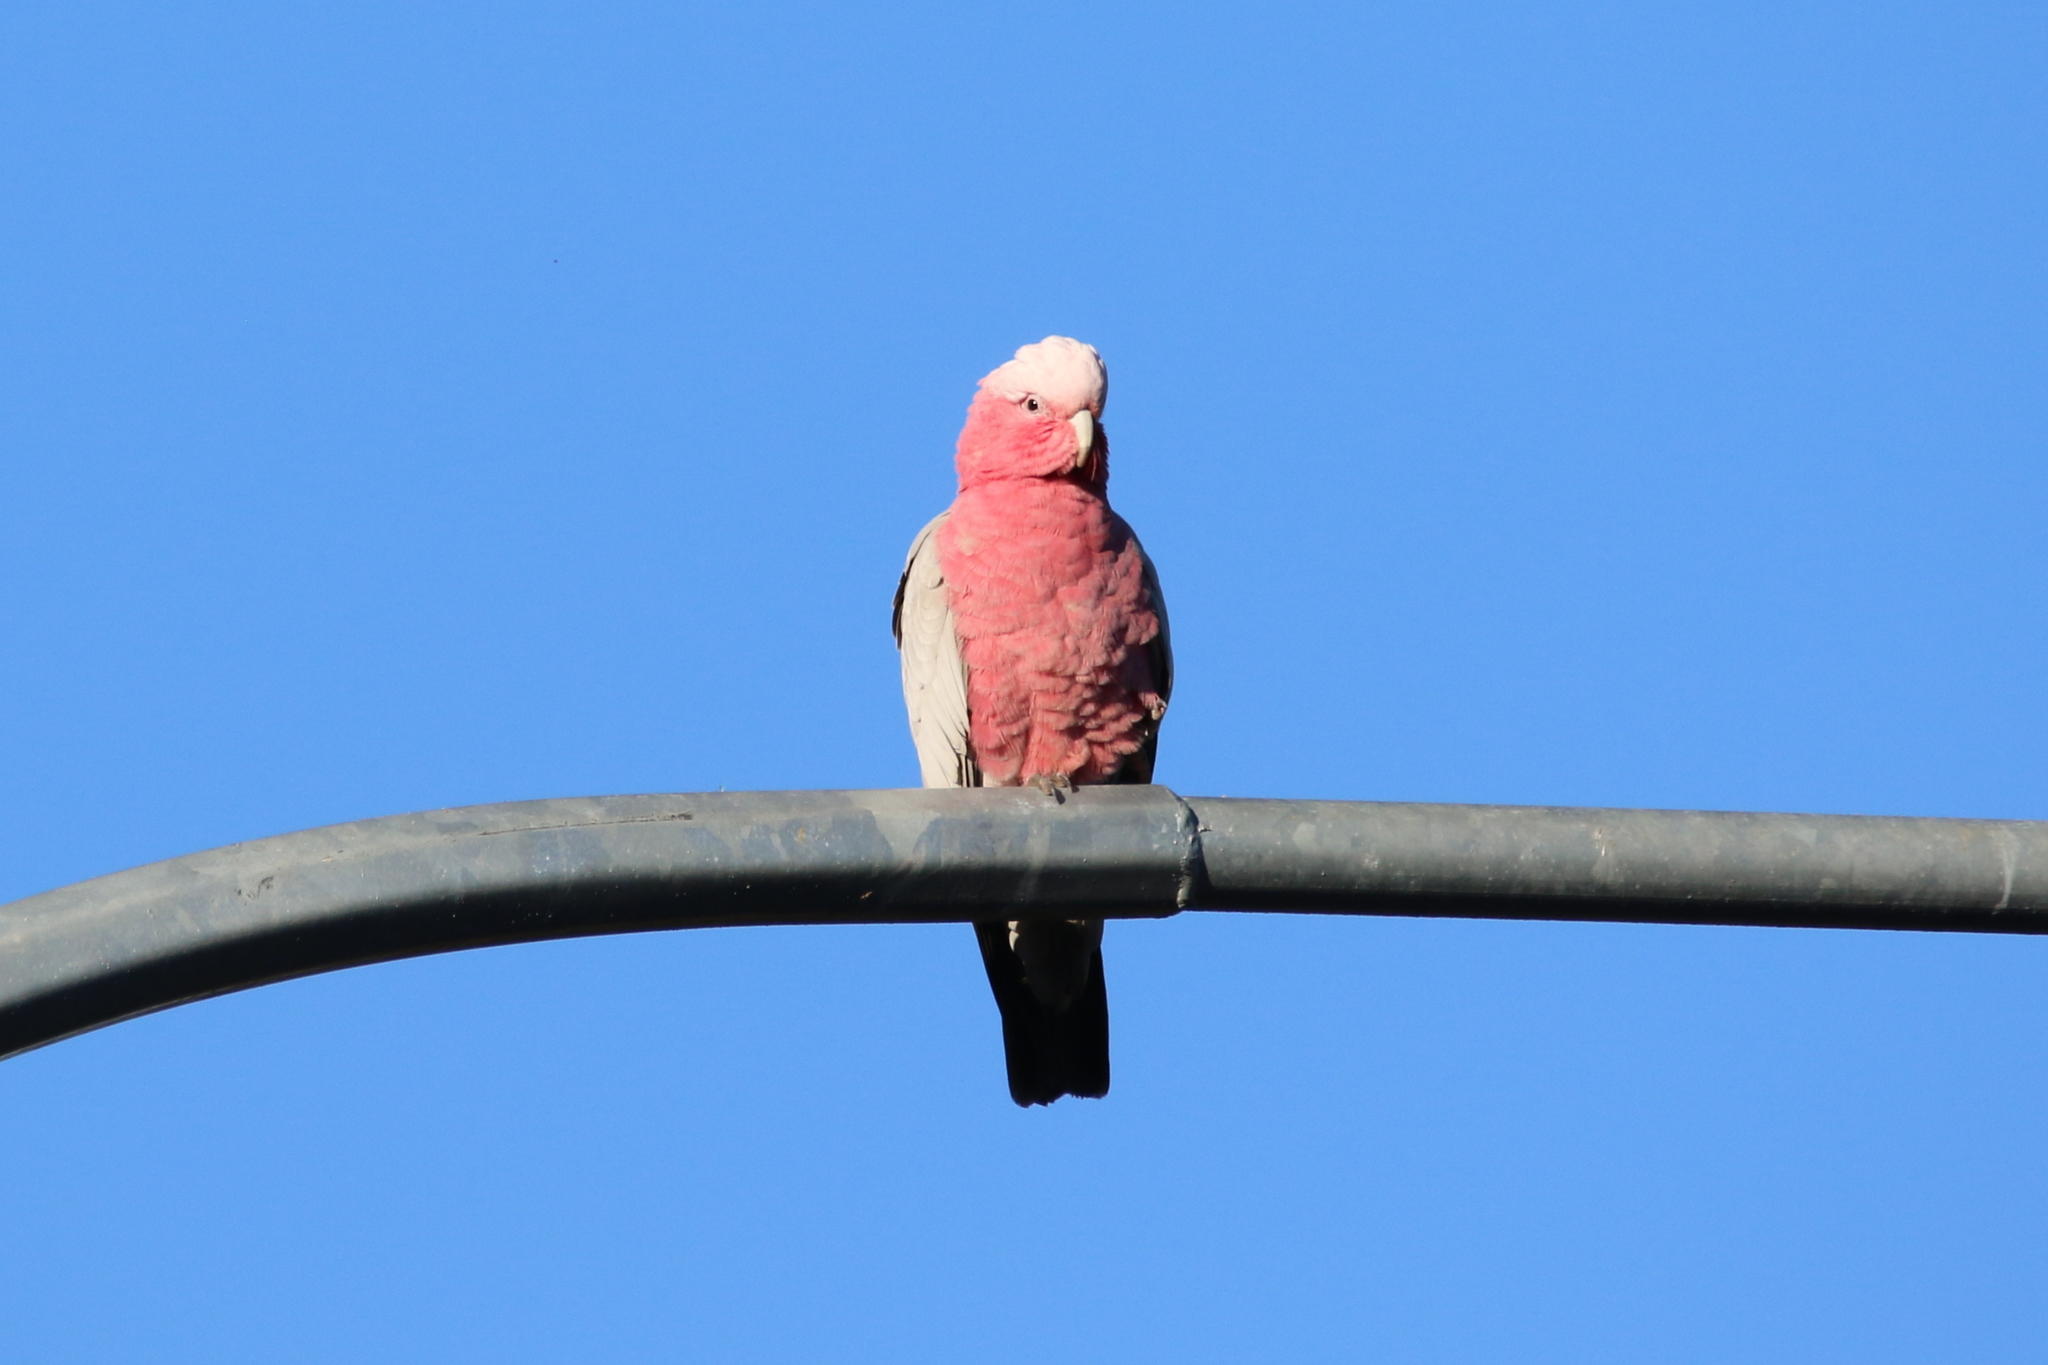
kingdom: Animalia
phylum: Chordata
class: Aves
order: Psittaciformes
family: Psittacidae
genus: Eolophus
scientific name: Eolophus roseicapilla
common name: Galah
